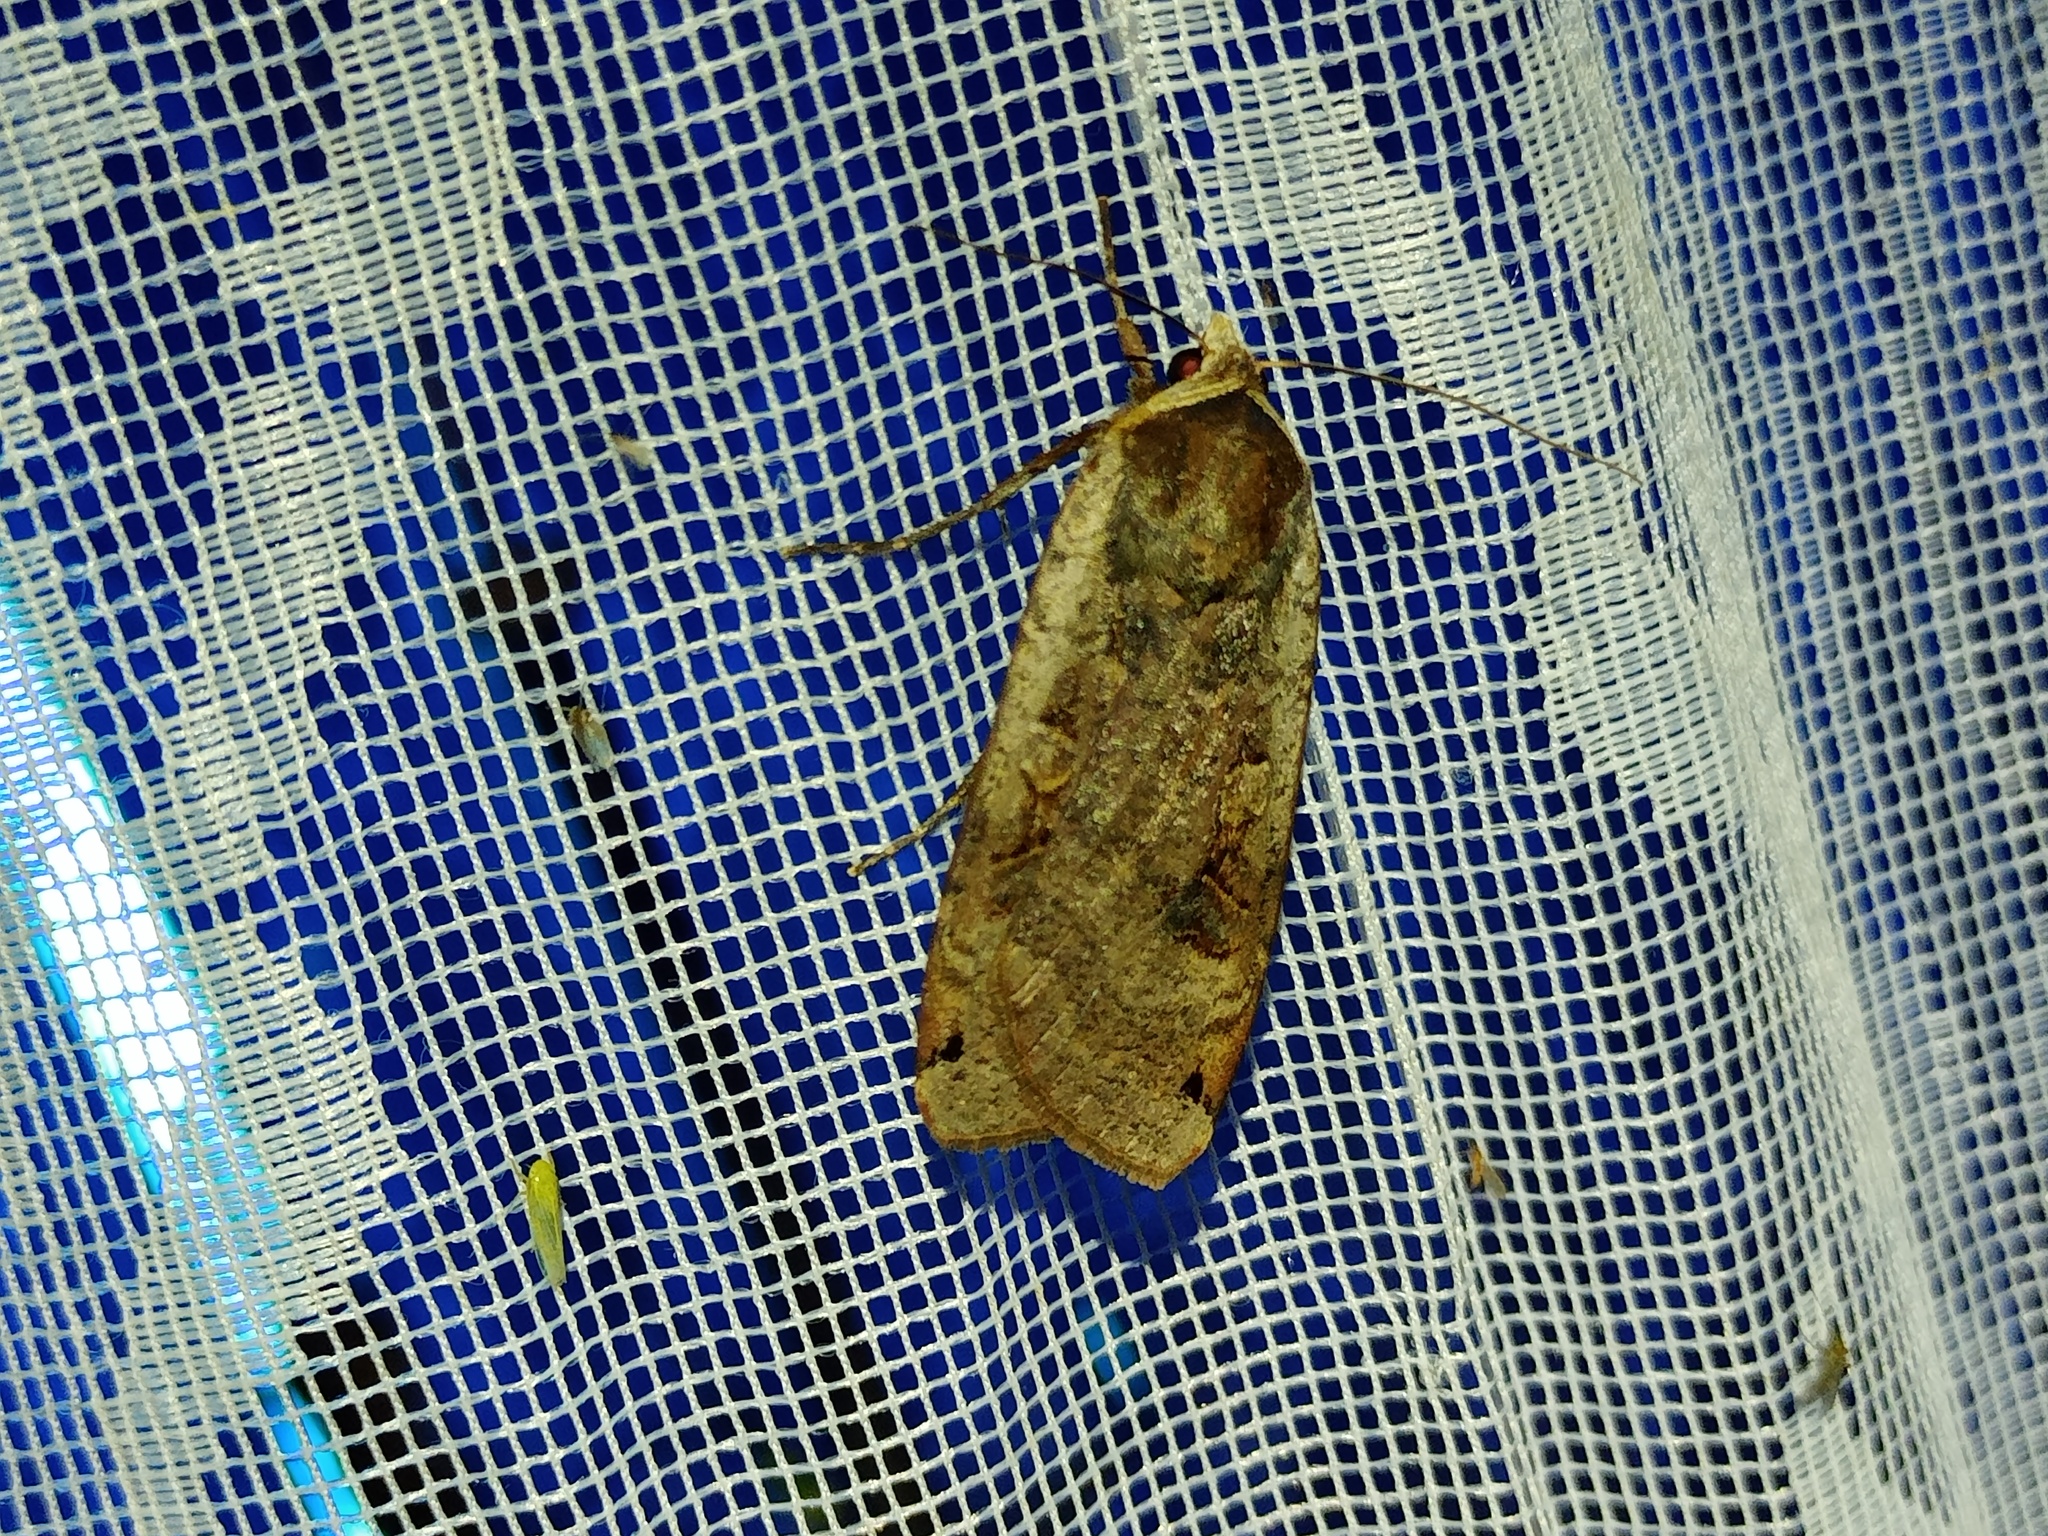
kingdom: Animalia
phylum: Arthropoda
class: Insecta
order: Lepidoptera
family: Noctuidae
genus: Noctua
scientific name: Noctua pronuba
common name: Large yellow underwing
